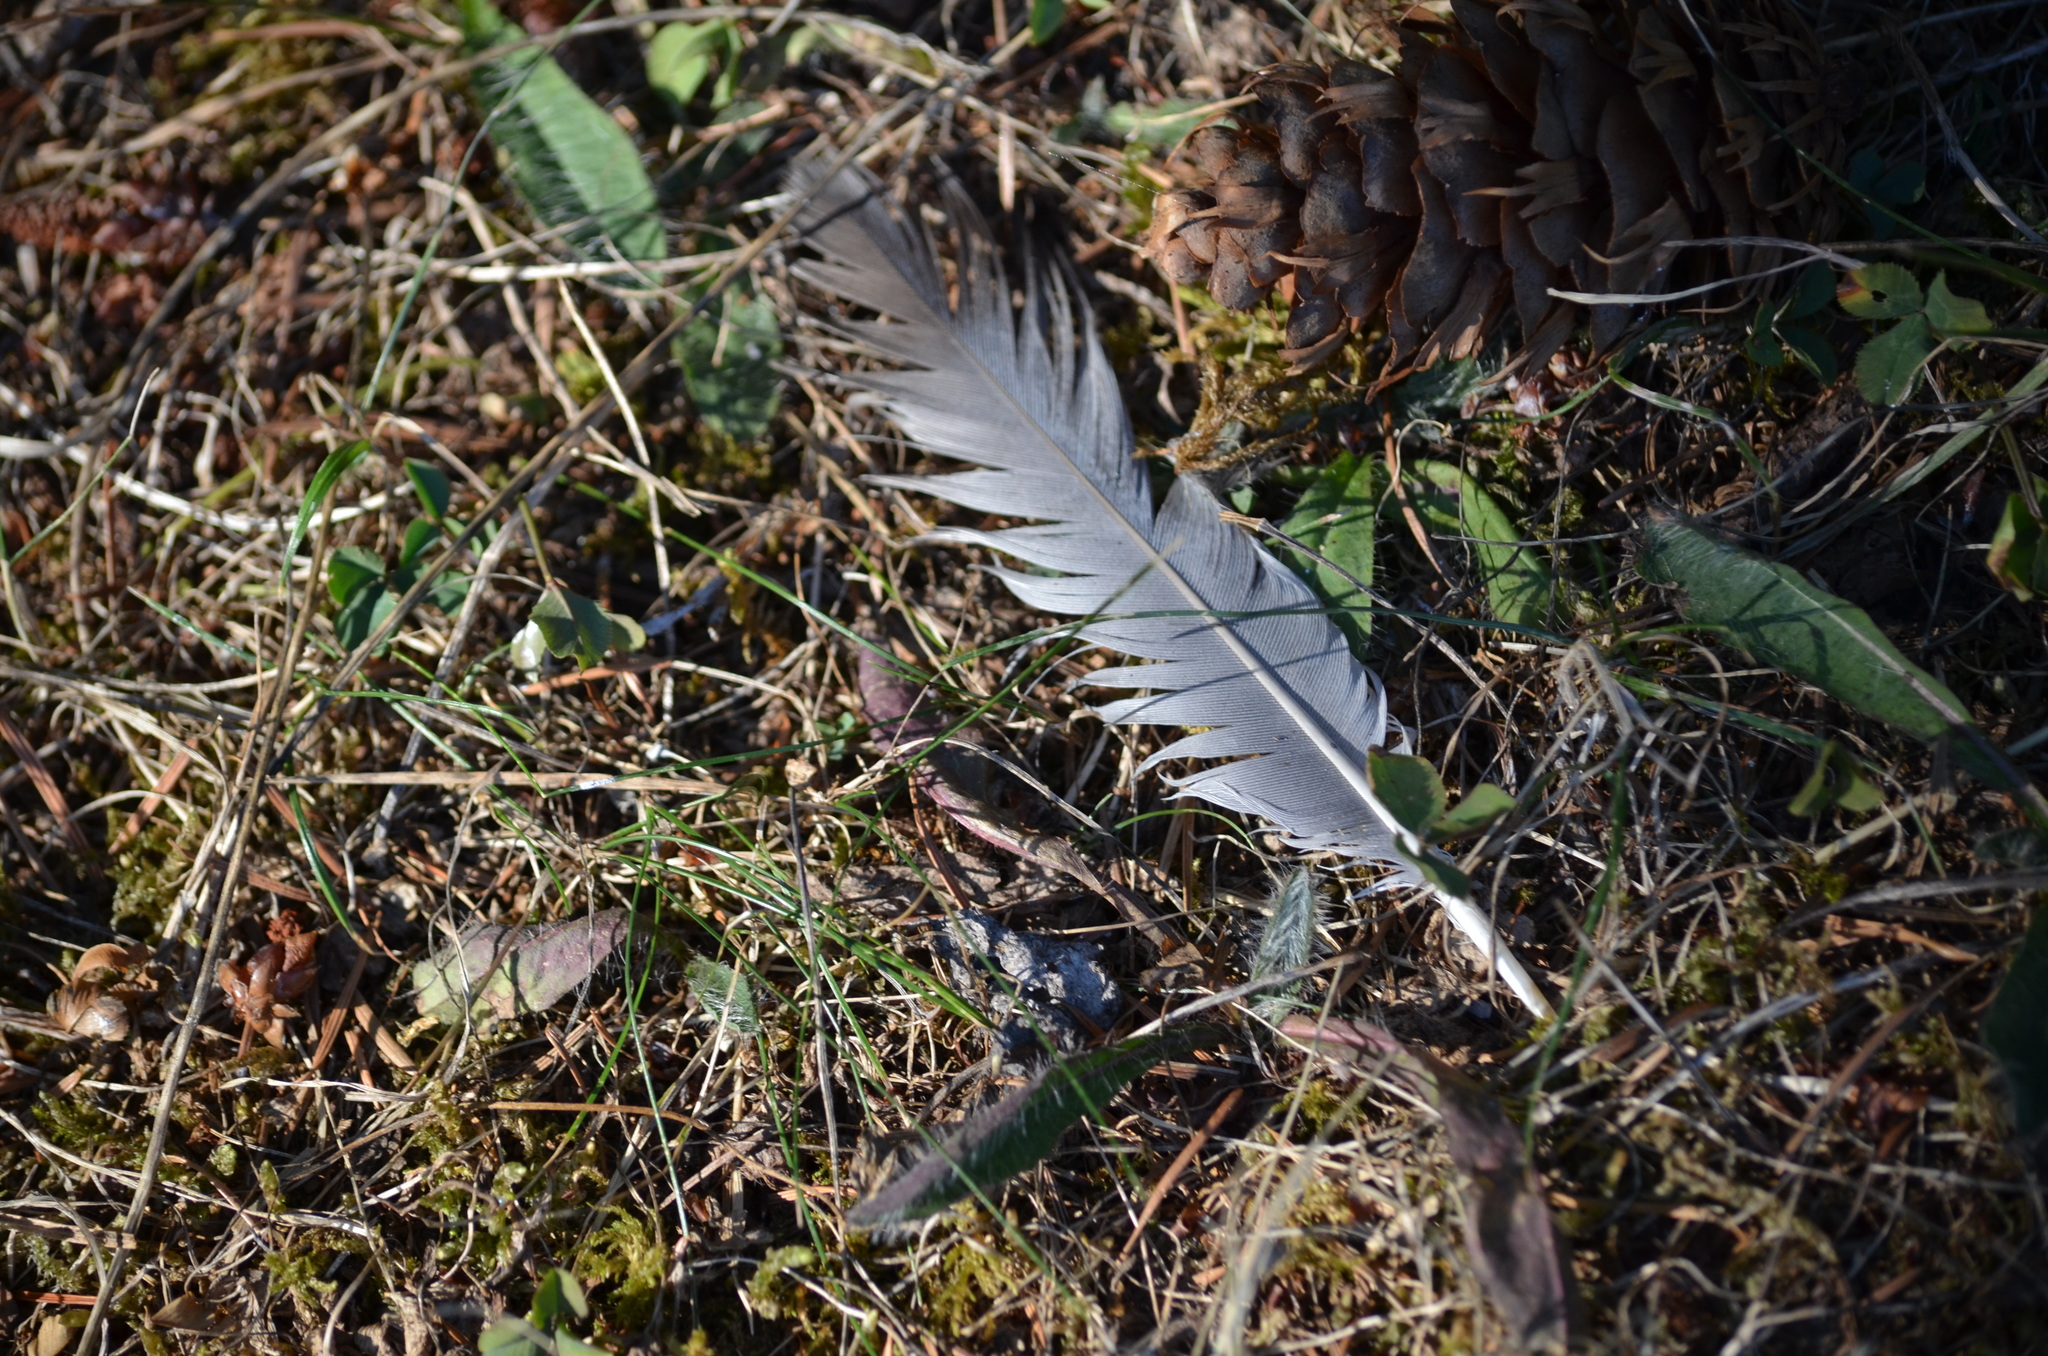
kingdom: Animalia
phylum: Chordata
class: Aves
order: Columbiformes
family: Columbidae
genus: Columba
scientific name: Columba livia
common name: Rock pigeon
